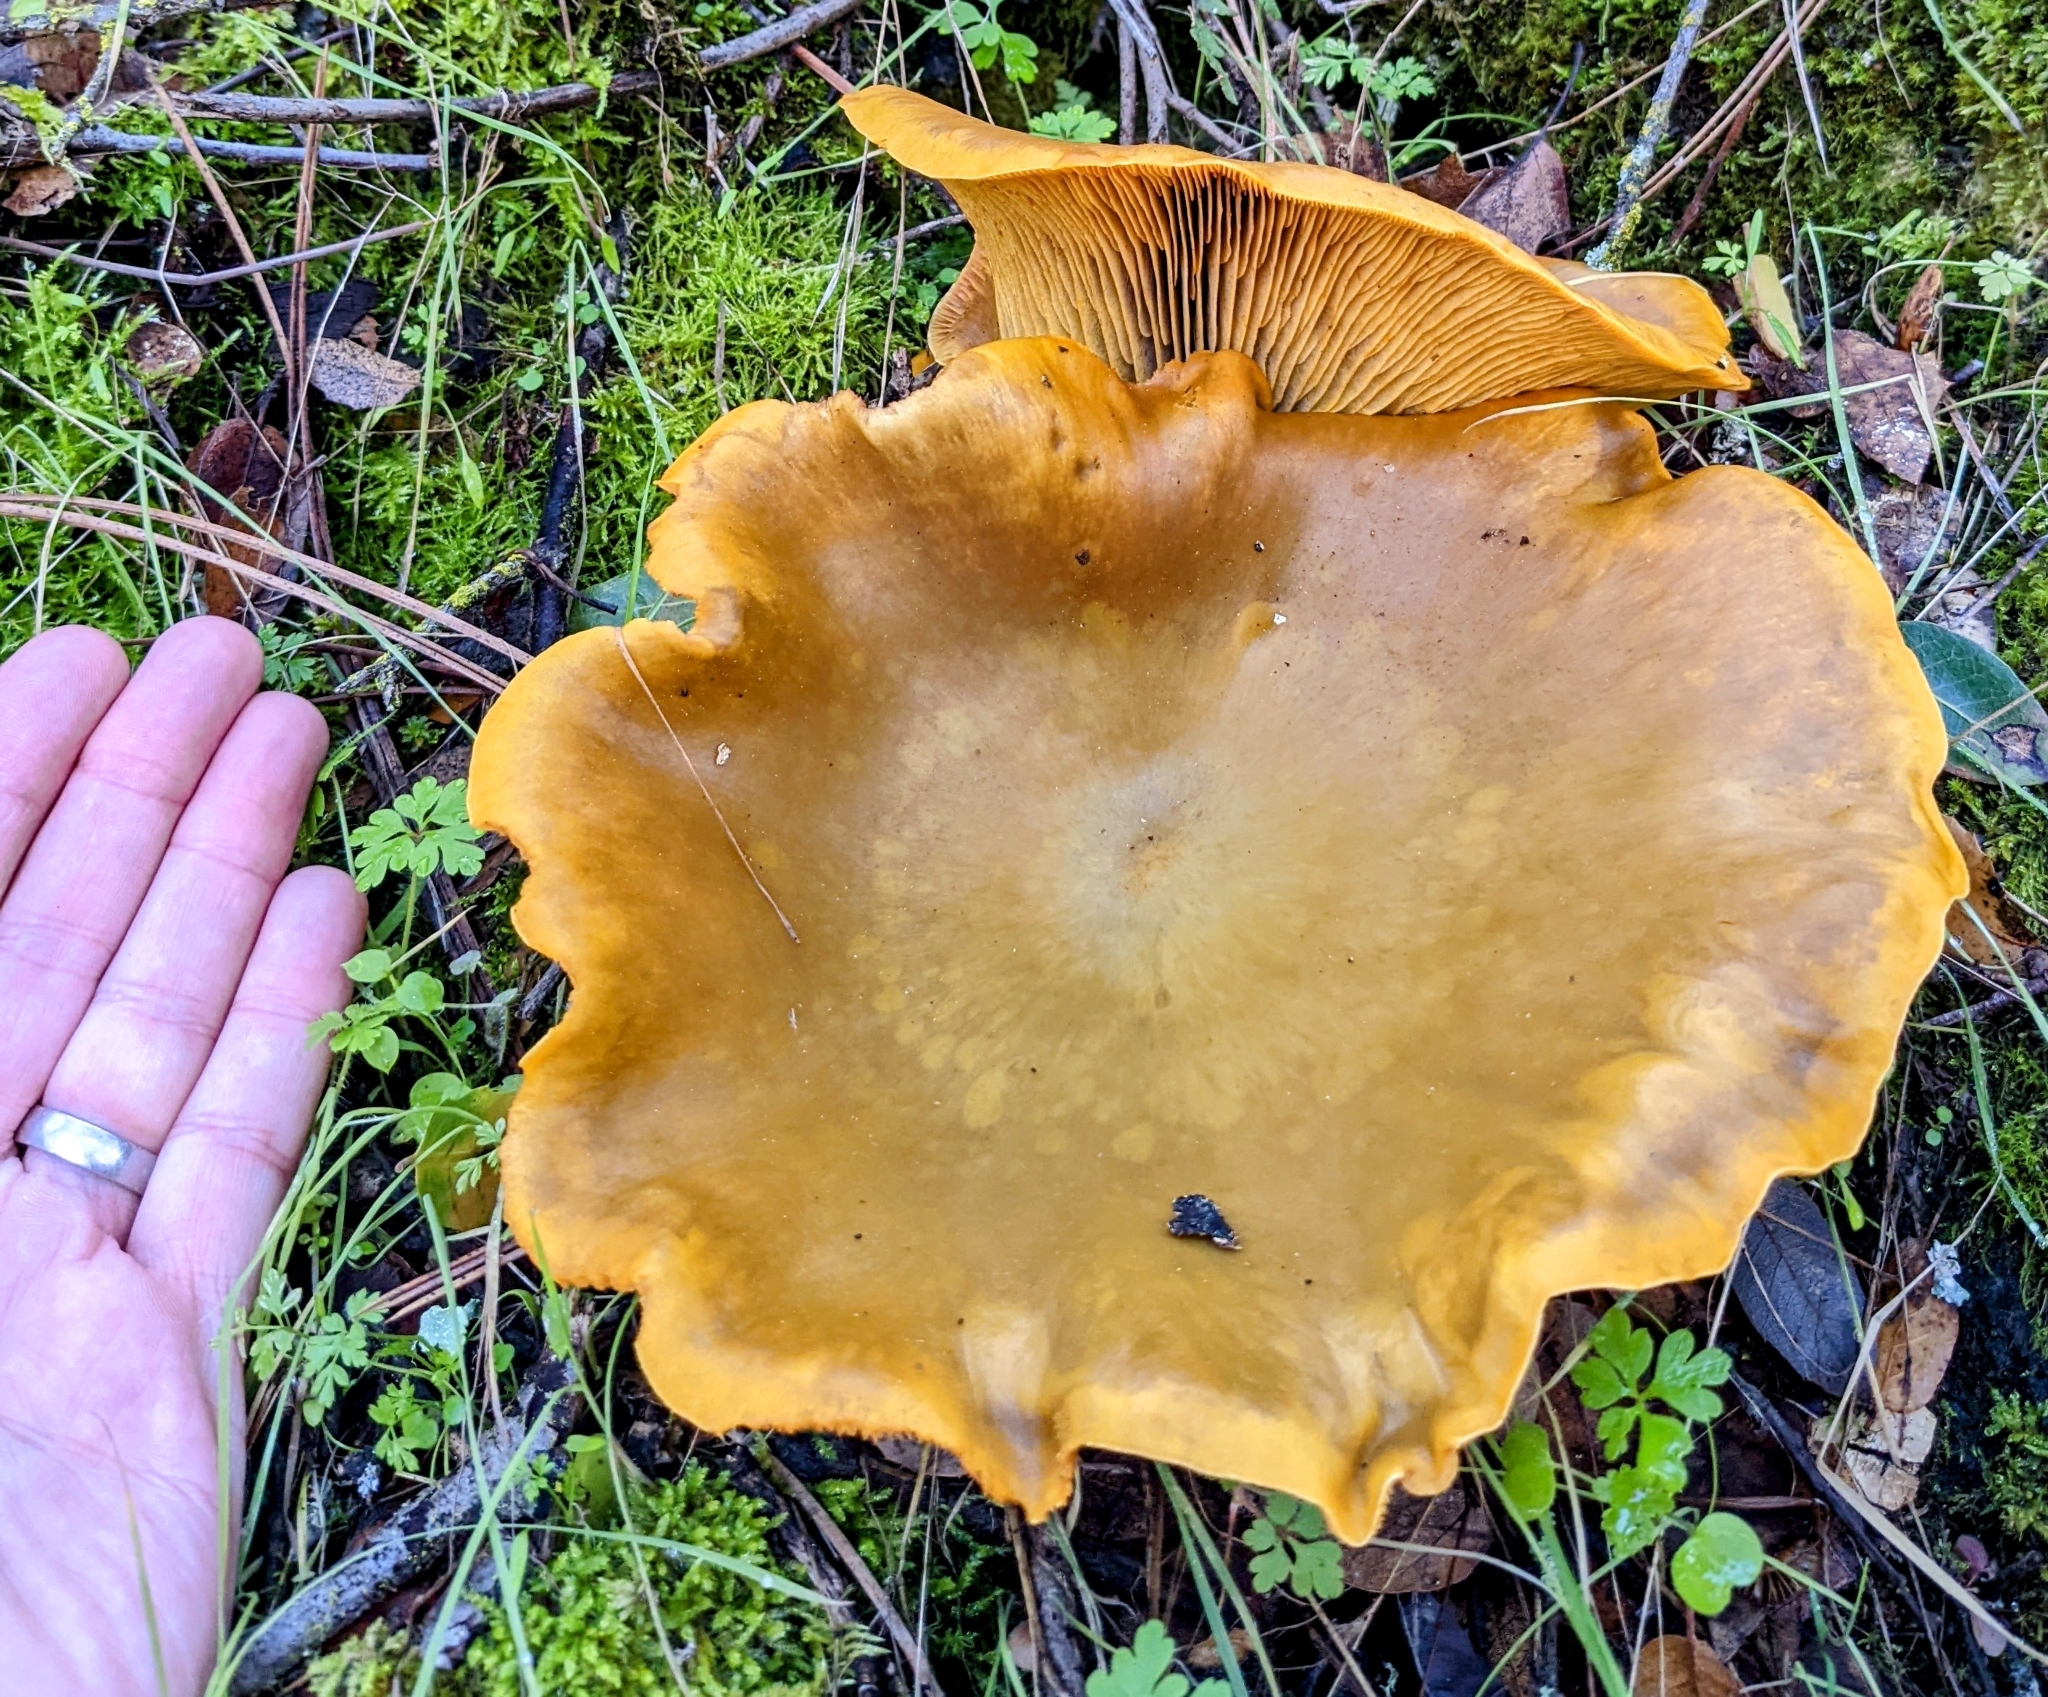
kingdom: Fungi
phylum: Basidiomycota
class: Agaricomycetes
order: Agaricales
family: Omphalotaceae
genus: Omphalotus
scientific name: Omphalotus olivascens
